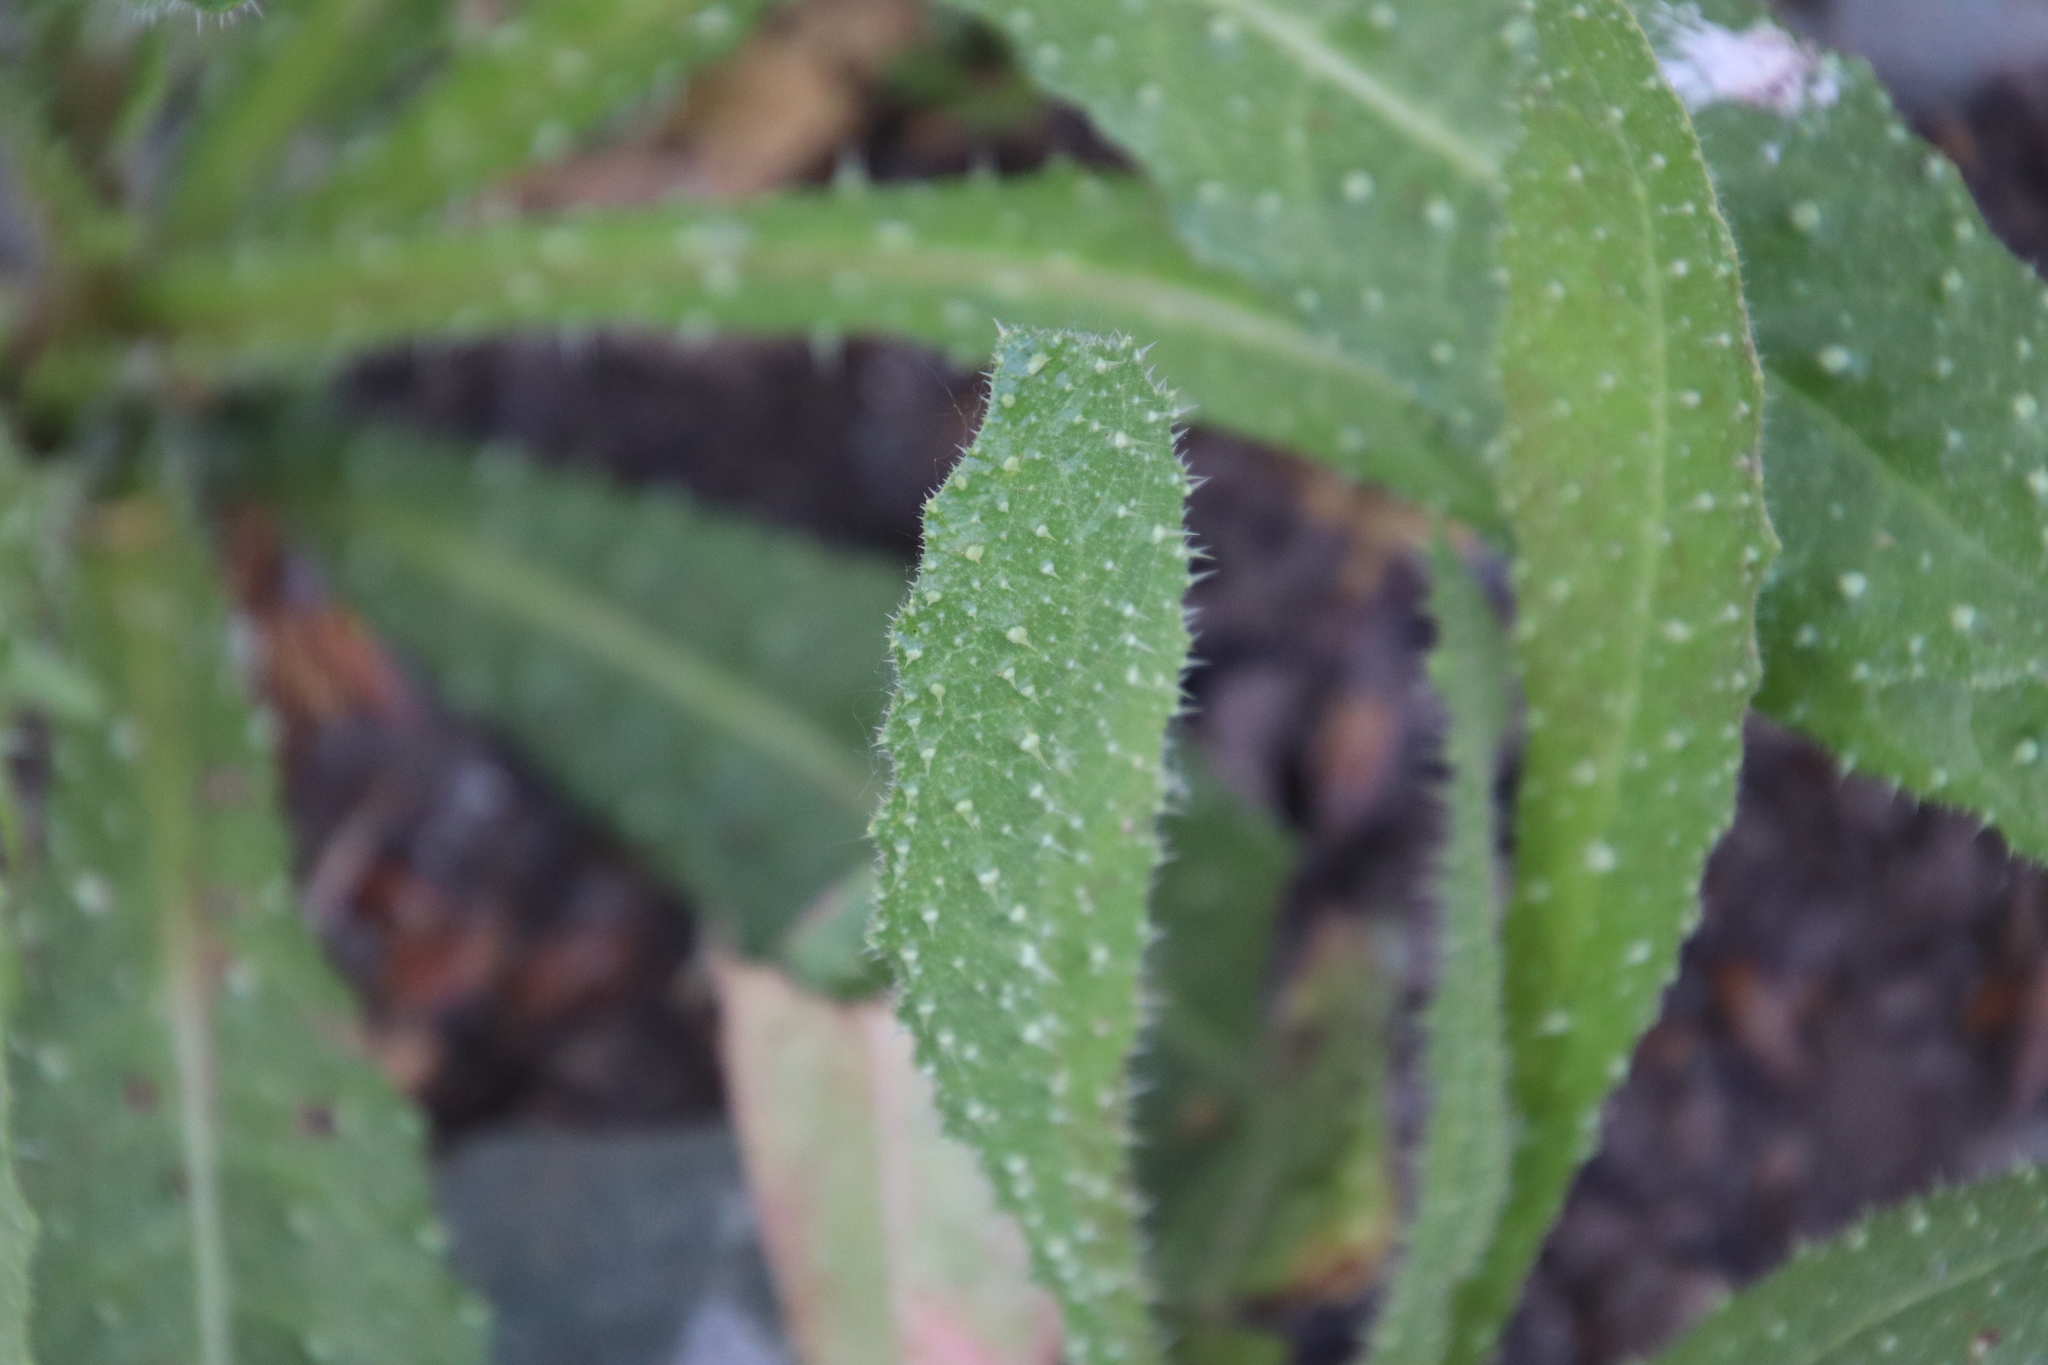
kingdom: Plantae
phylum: Tracheophyta
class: Magnoliopsida
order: Asterales
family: Asteraceae
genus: Helminthotheca
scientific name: Helminthotheca echioides
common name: Ox-tongue
